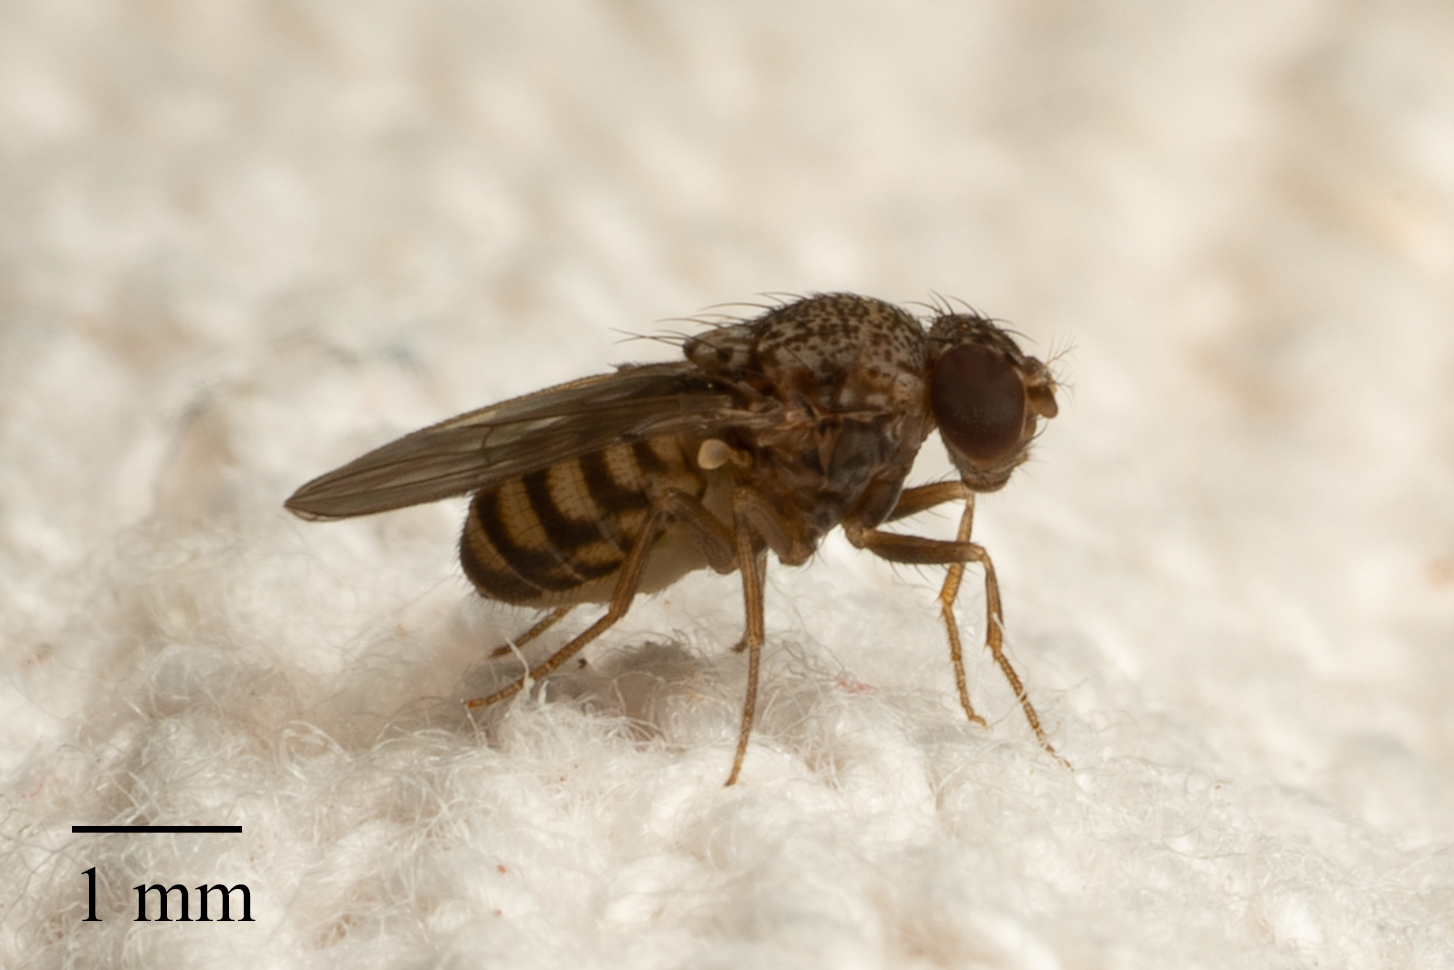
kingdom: Animalia
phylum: Arthropoda
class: Insecta
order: Diptera
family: Drosophilidae
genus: Drosophila
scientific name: Drosophila repleta
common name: Pomace fly
